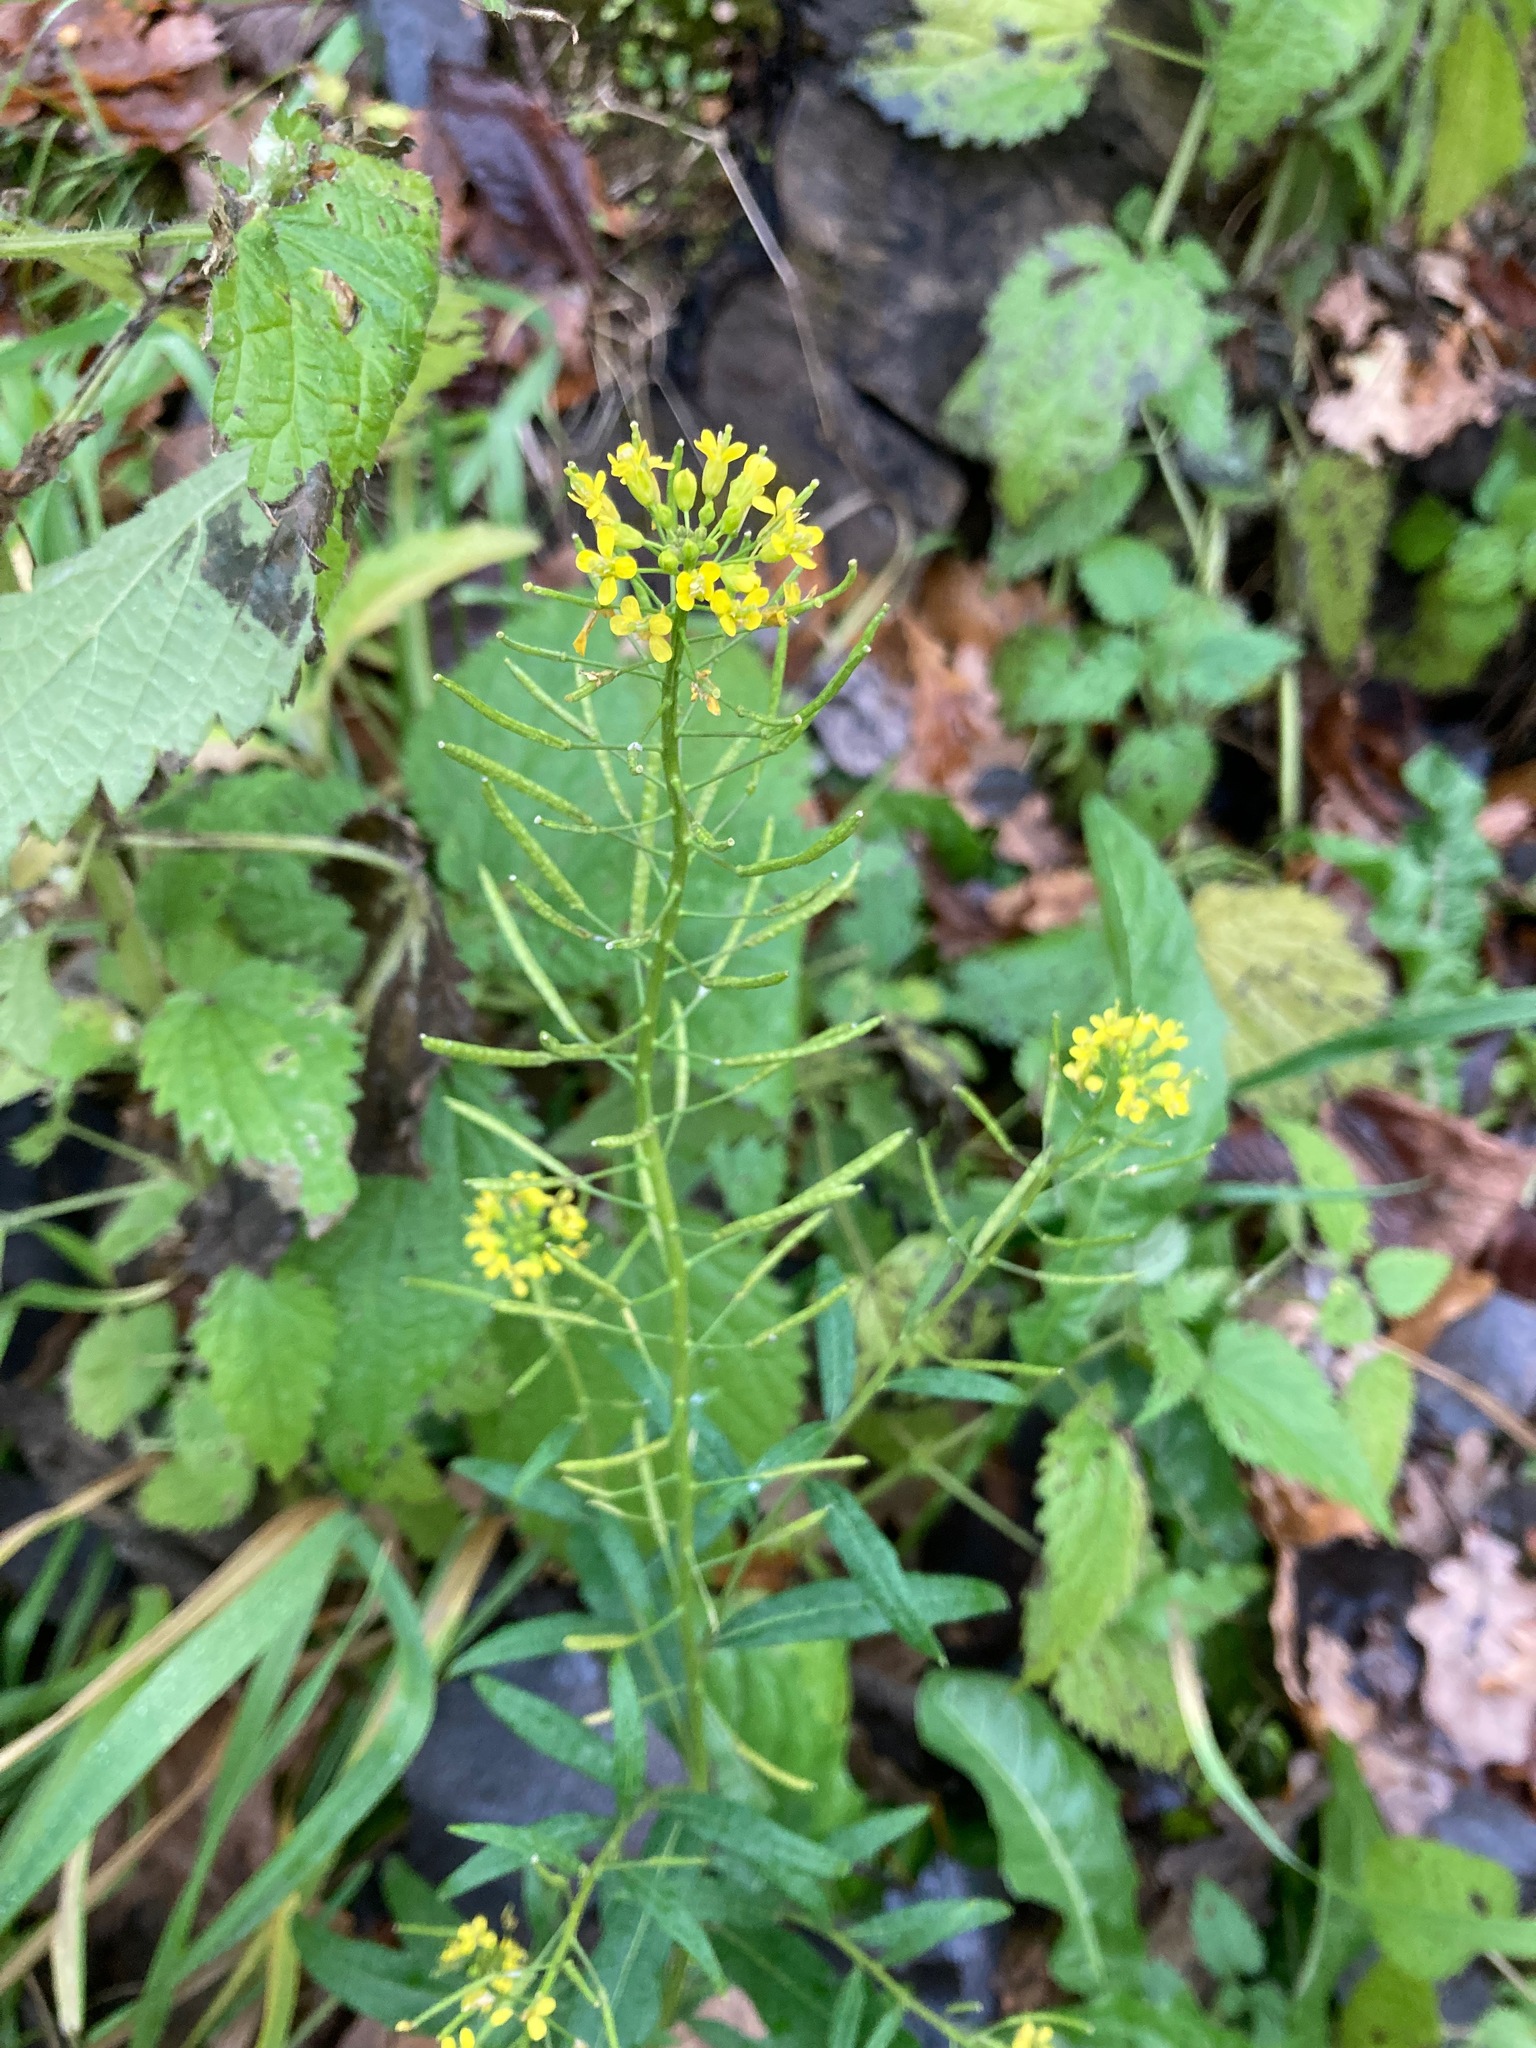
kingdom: Plantae
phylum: Tracheophyta
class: Magnoliopsida
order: Brassicales
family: Brassicaceae
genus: Erysimum
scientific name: Erysimum cheiranthoides
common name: Treacle mustard
